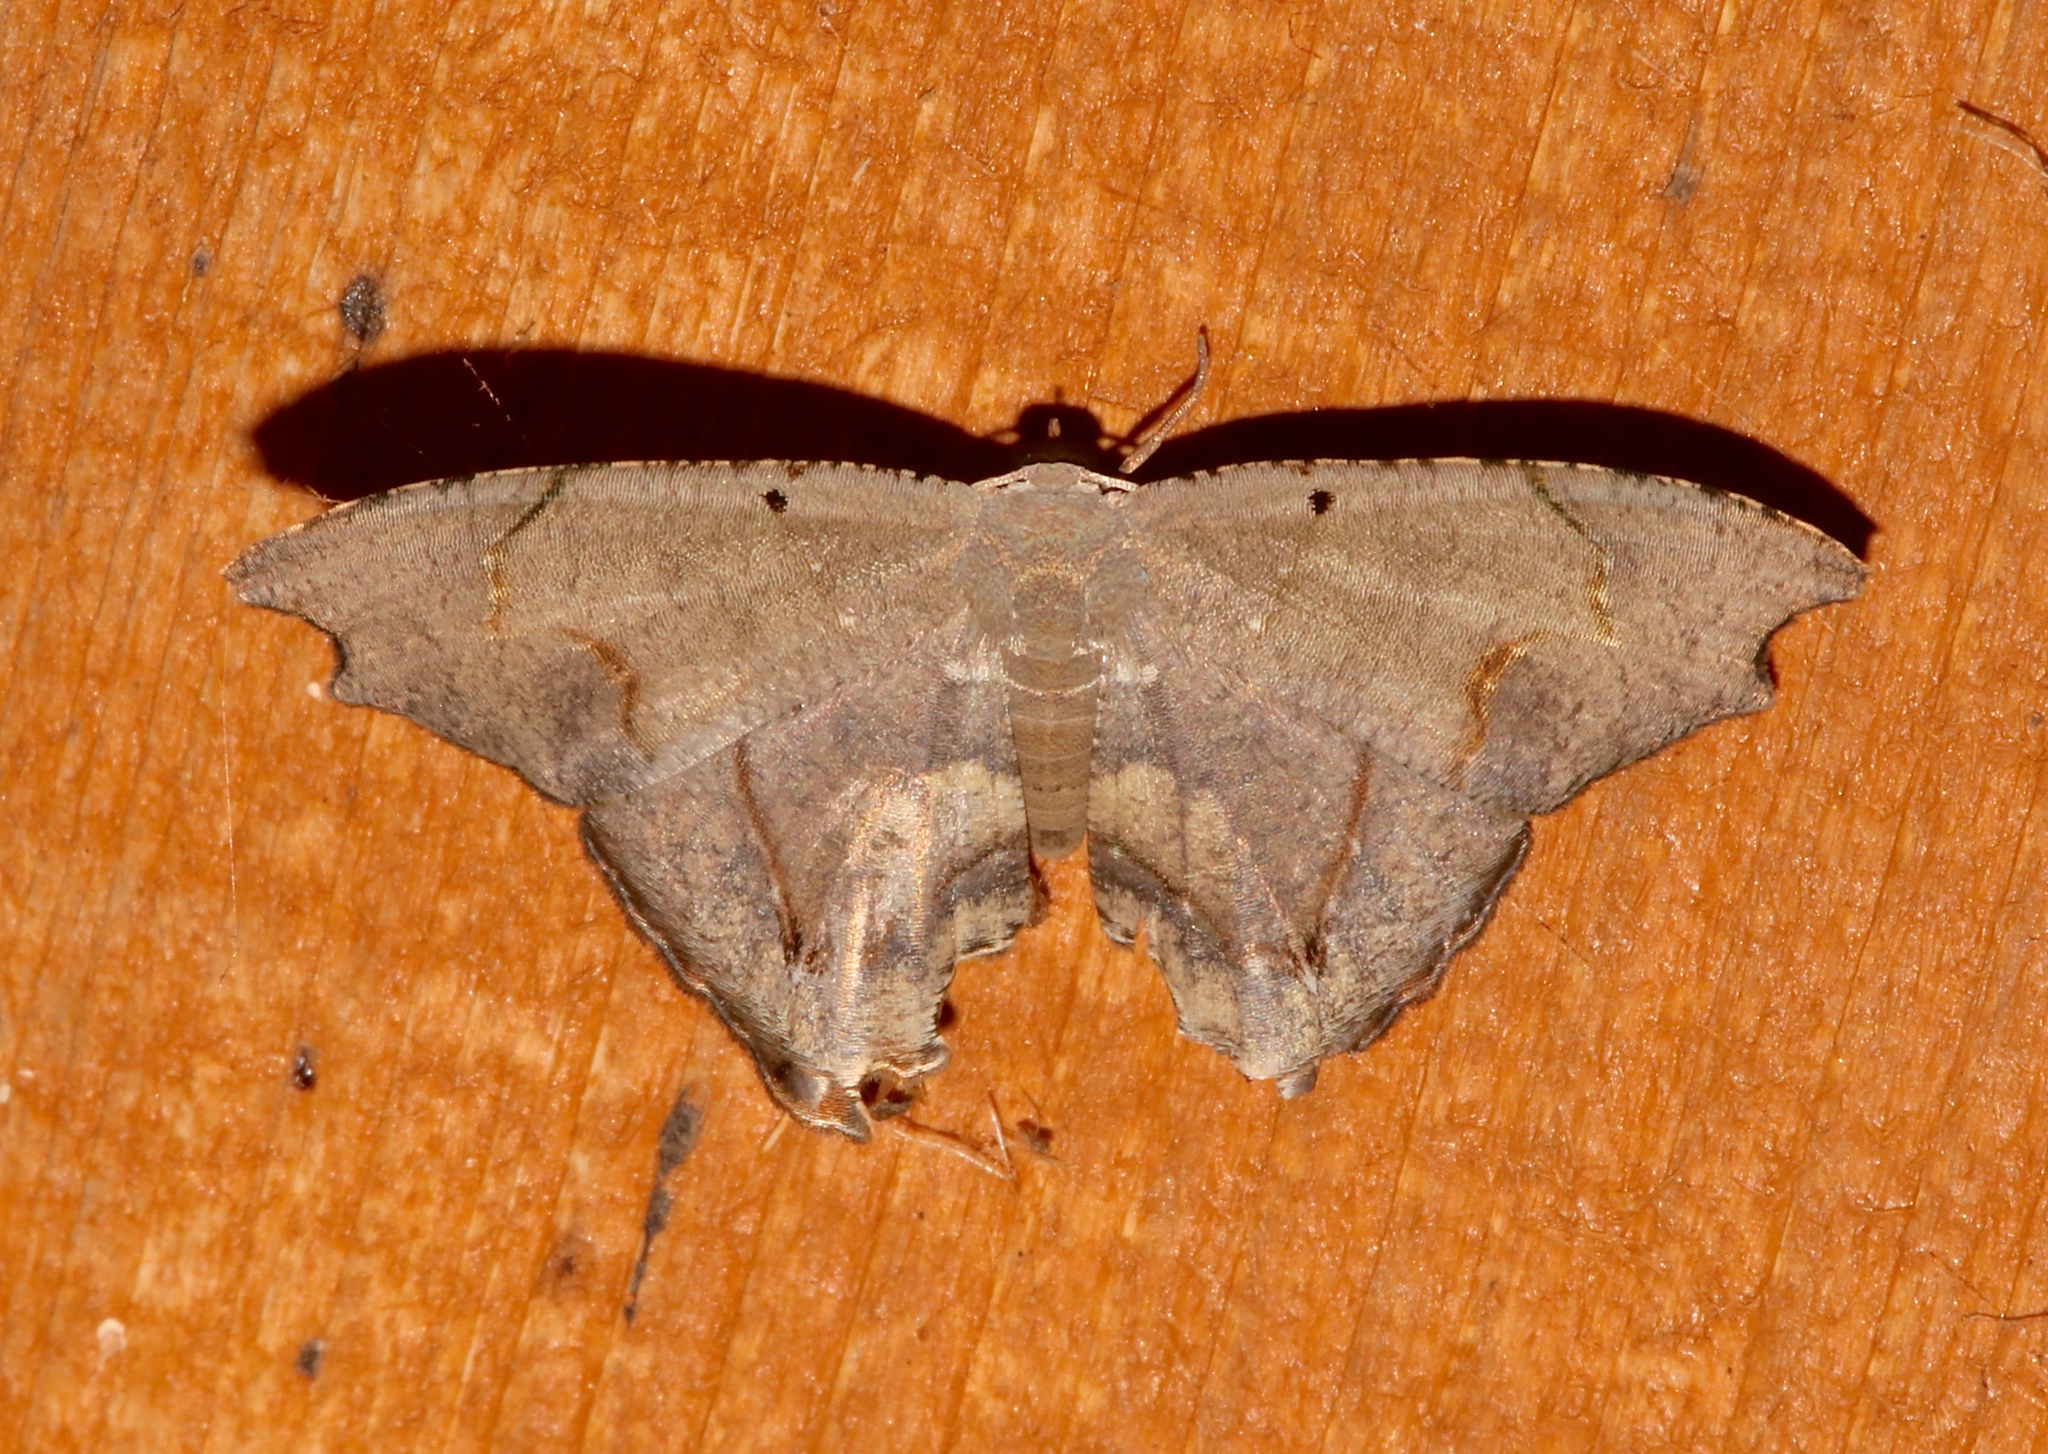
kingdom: Animalia
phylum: Arthropoda
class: Insecta
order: Lepidoptera
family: Uraniidae
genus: Trotorhombia
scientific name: Trotorhombia metachromata
